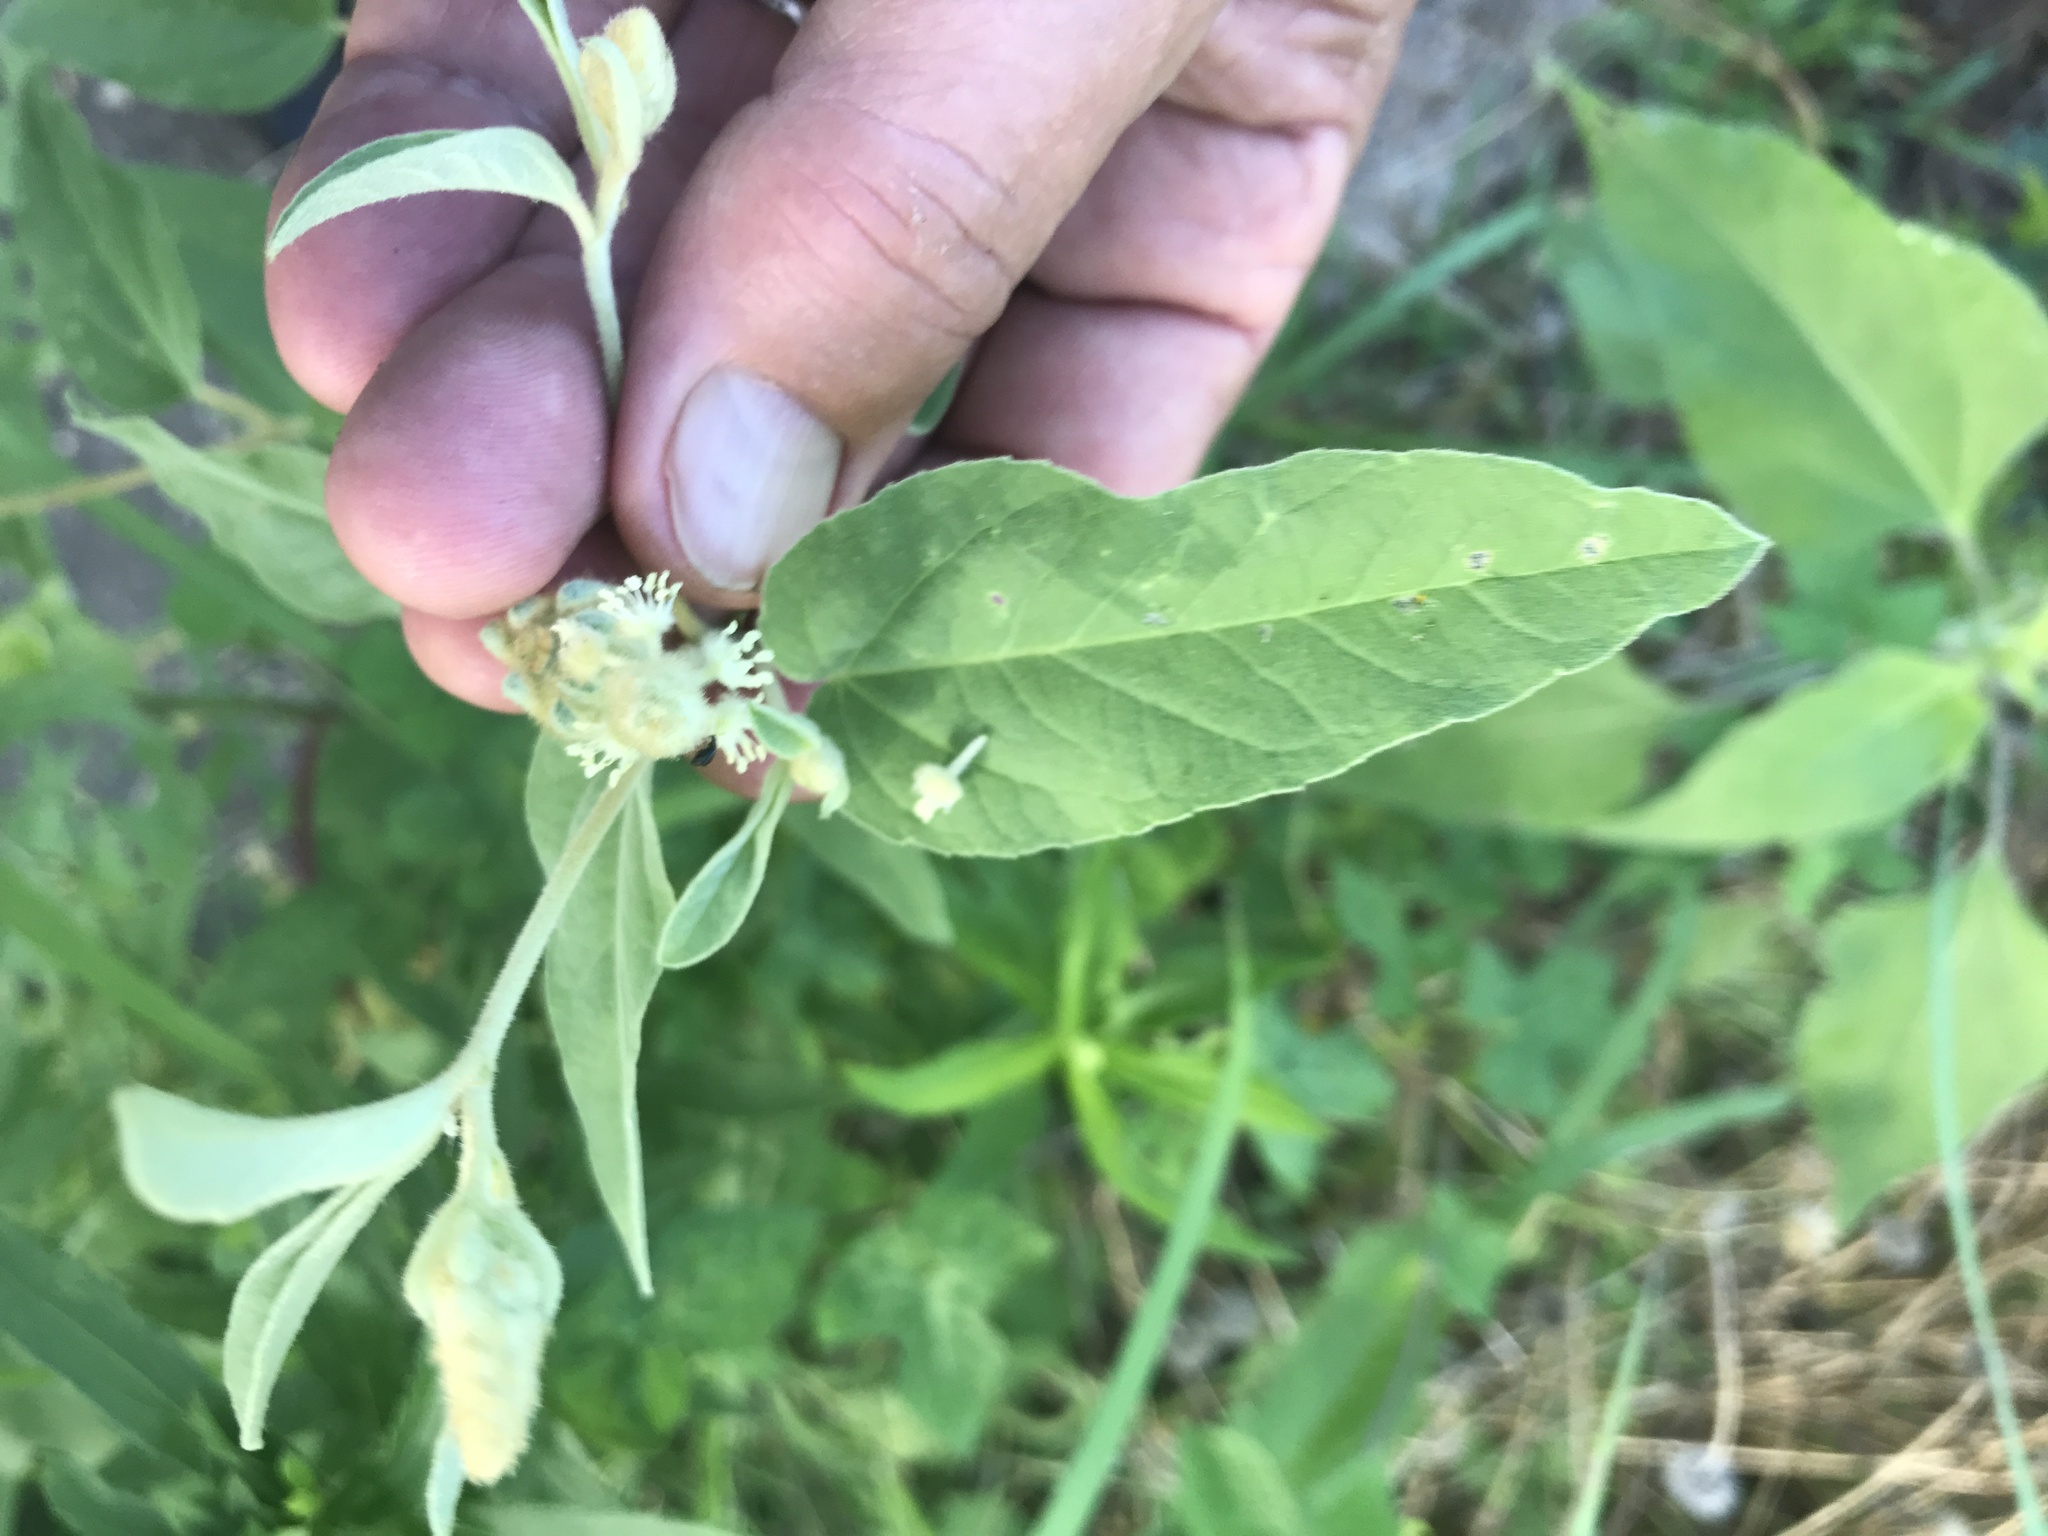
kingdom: Plantae
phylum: Tracheophyta
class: Magnoliopsida
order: Malpighiales
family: Euphorbiaceae
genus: Croton
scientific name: Croton lindheimeri
